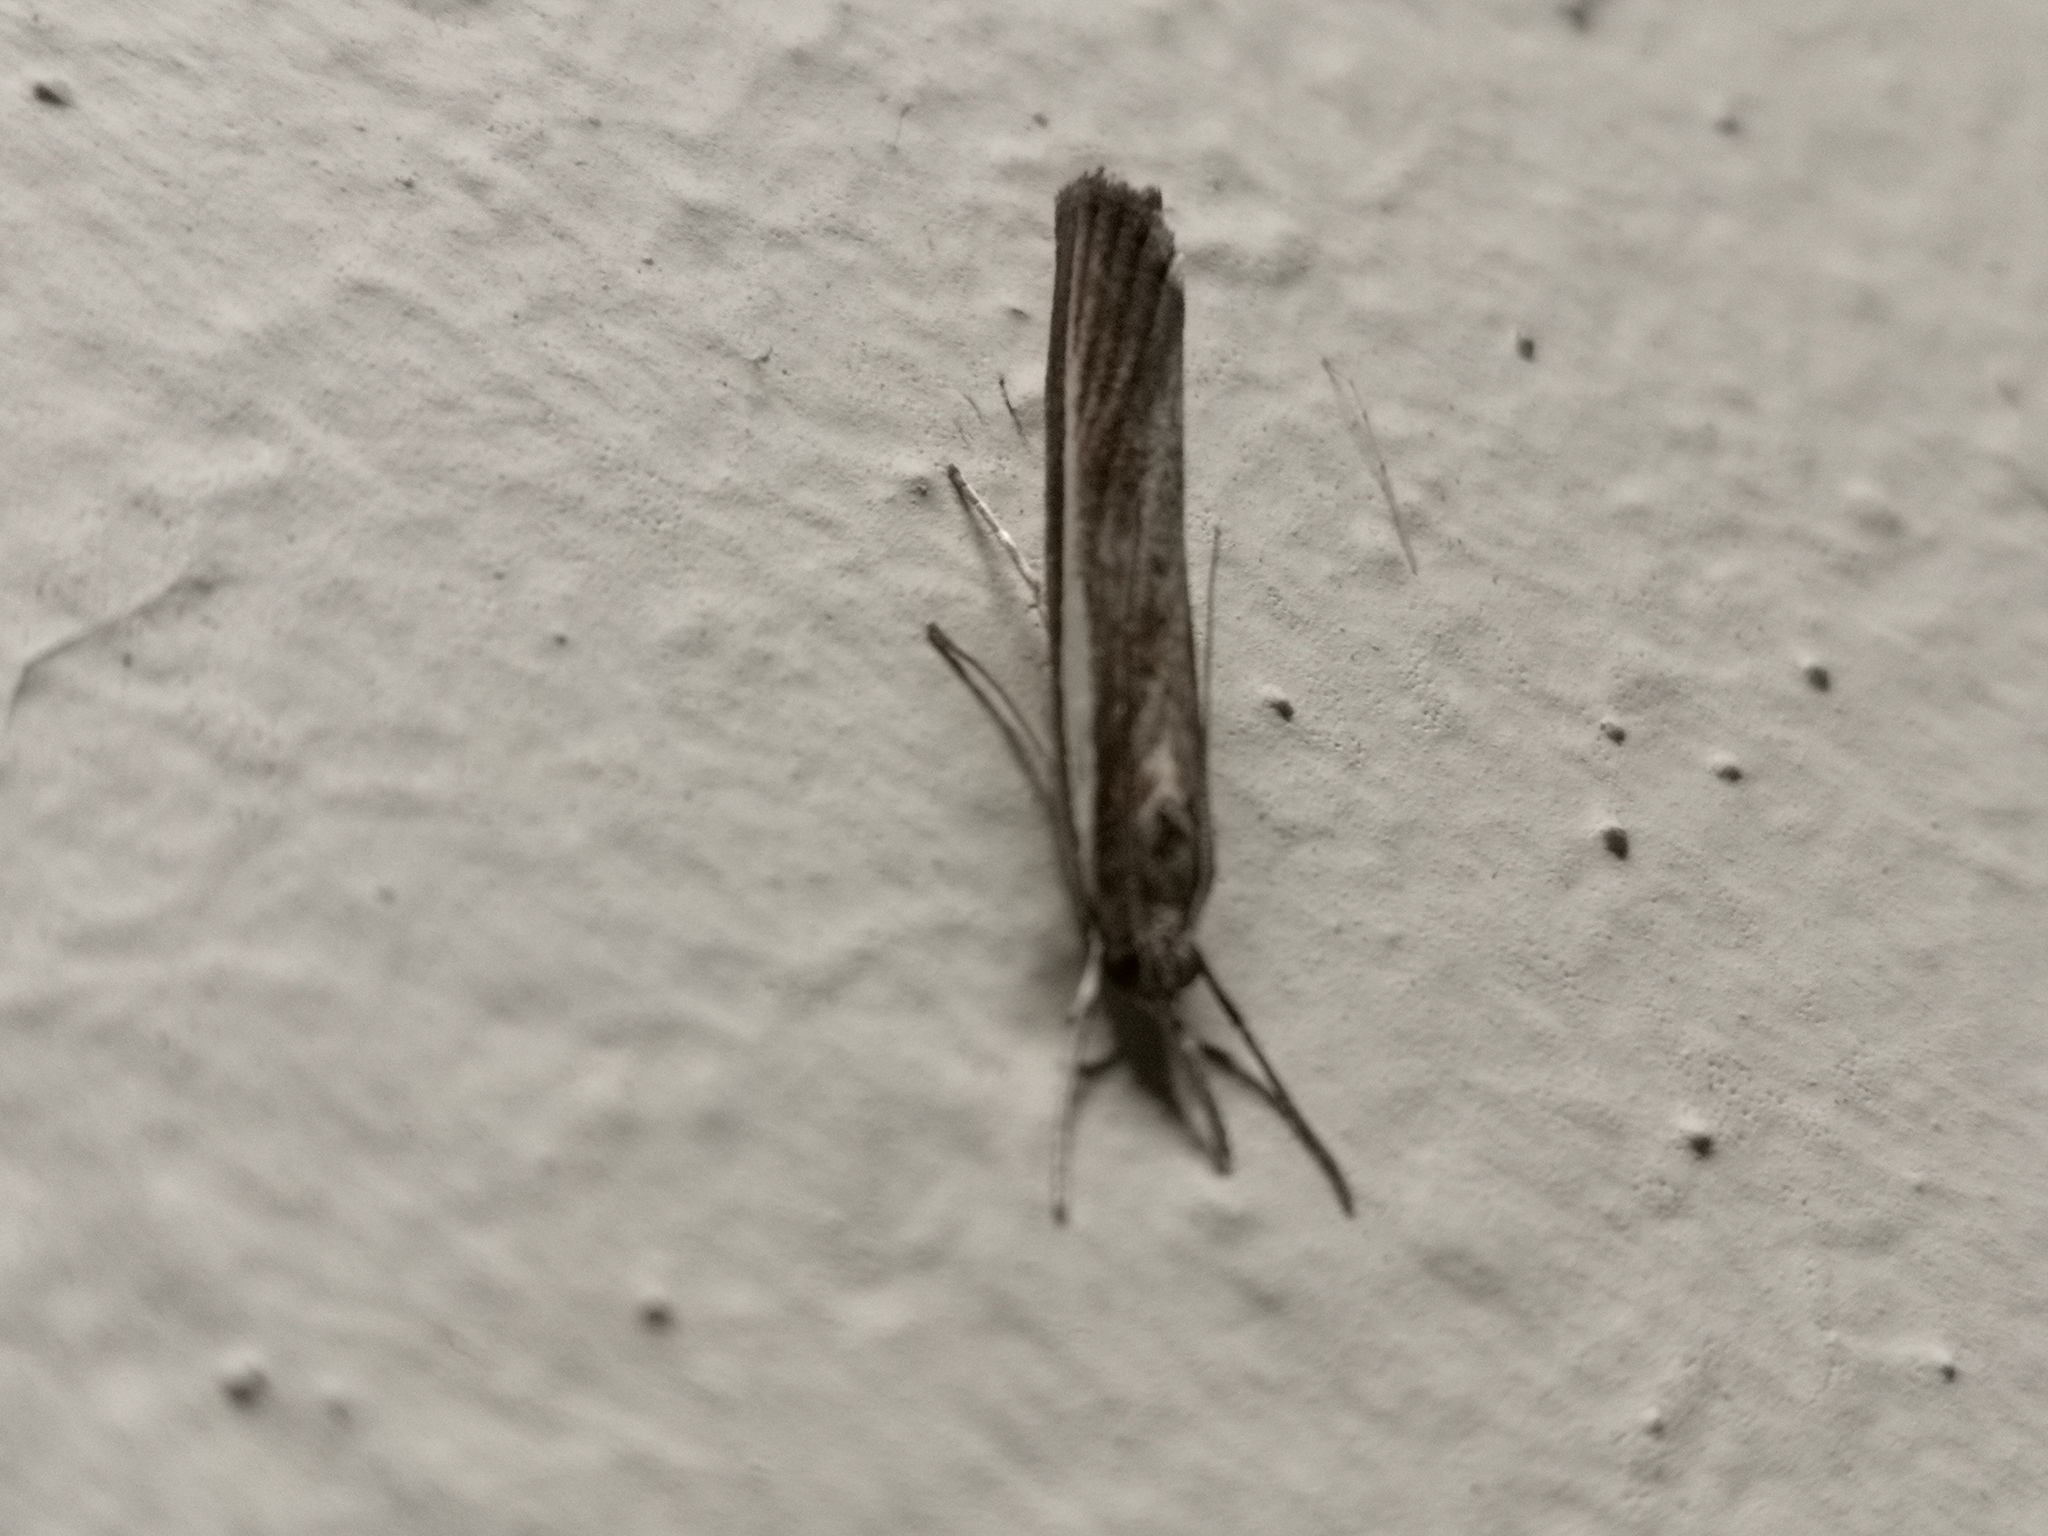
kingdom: Animalia
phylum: Arthropoda
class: Insecta
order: Lepidoptera
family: Crambidae
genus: Agriphila
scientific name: Agriphila tristellus
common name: Common grass-veneer
